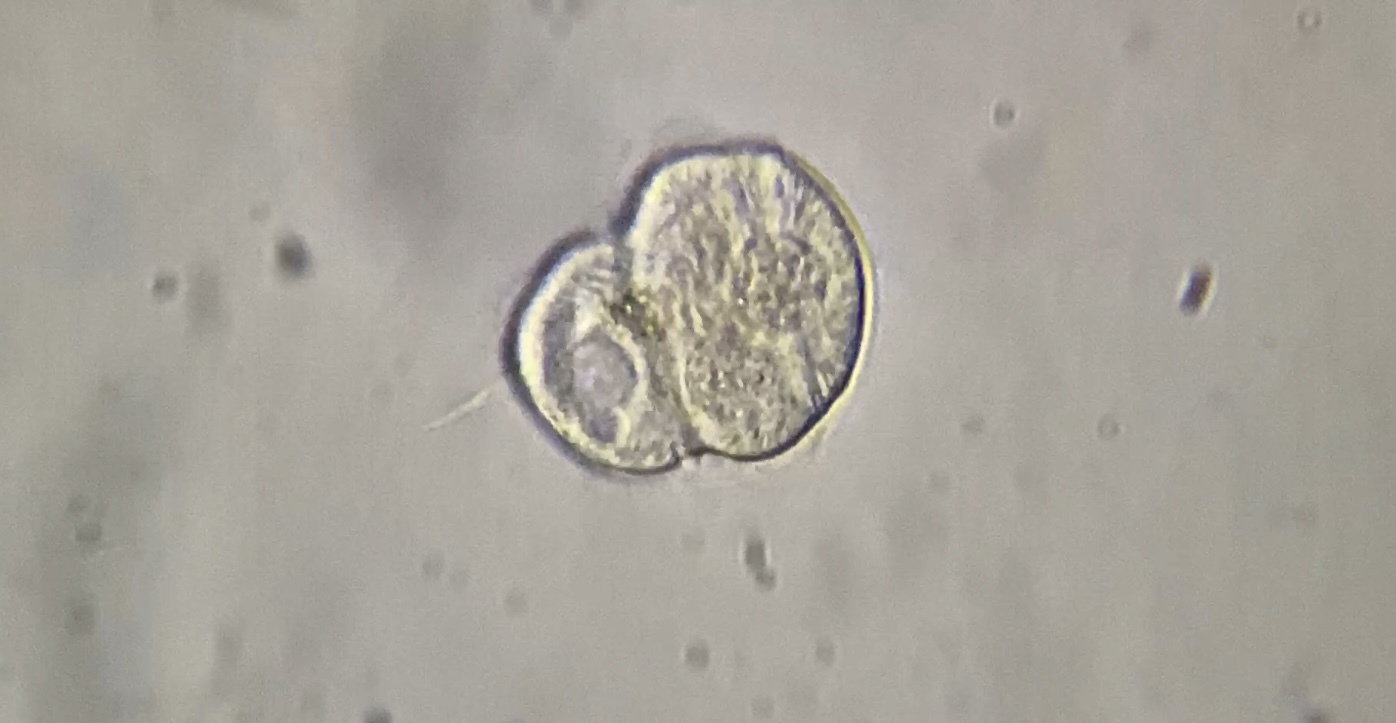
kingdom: Chromista
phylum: Ciliophora
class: Oligohymenophorea
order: Hymenostomatida
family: Urocentridae
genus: Urocentrum
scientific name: Urocentrum turbo
